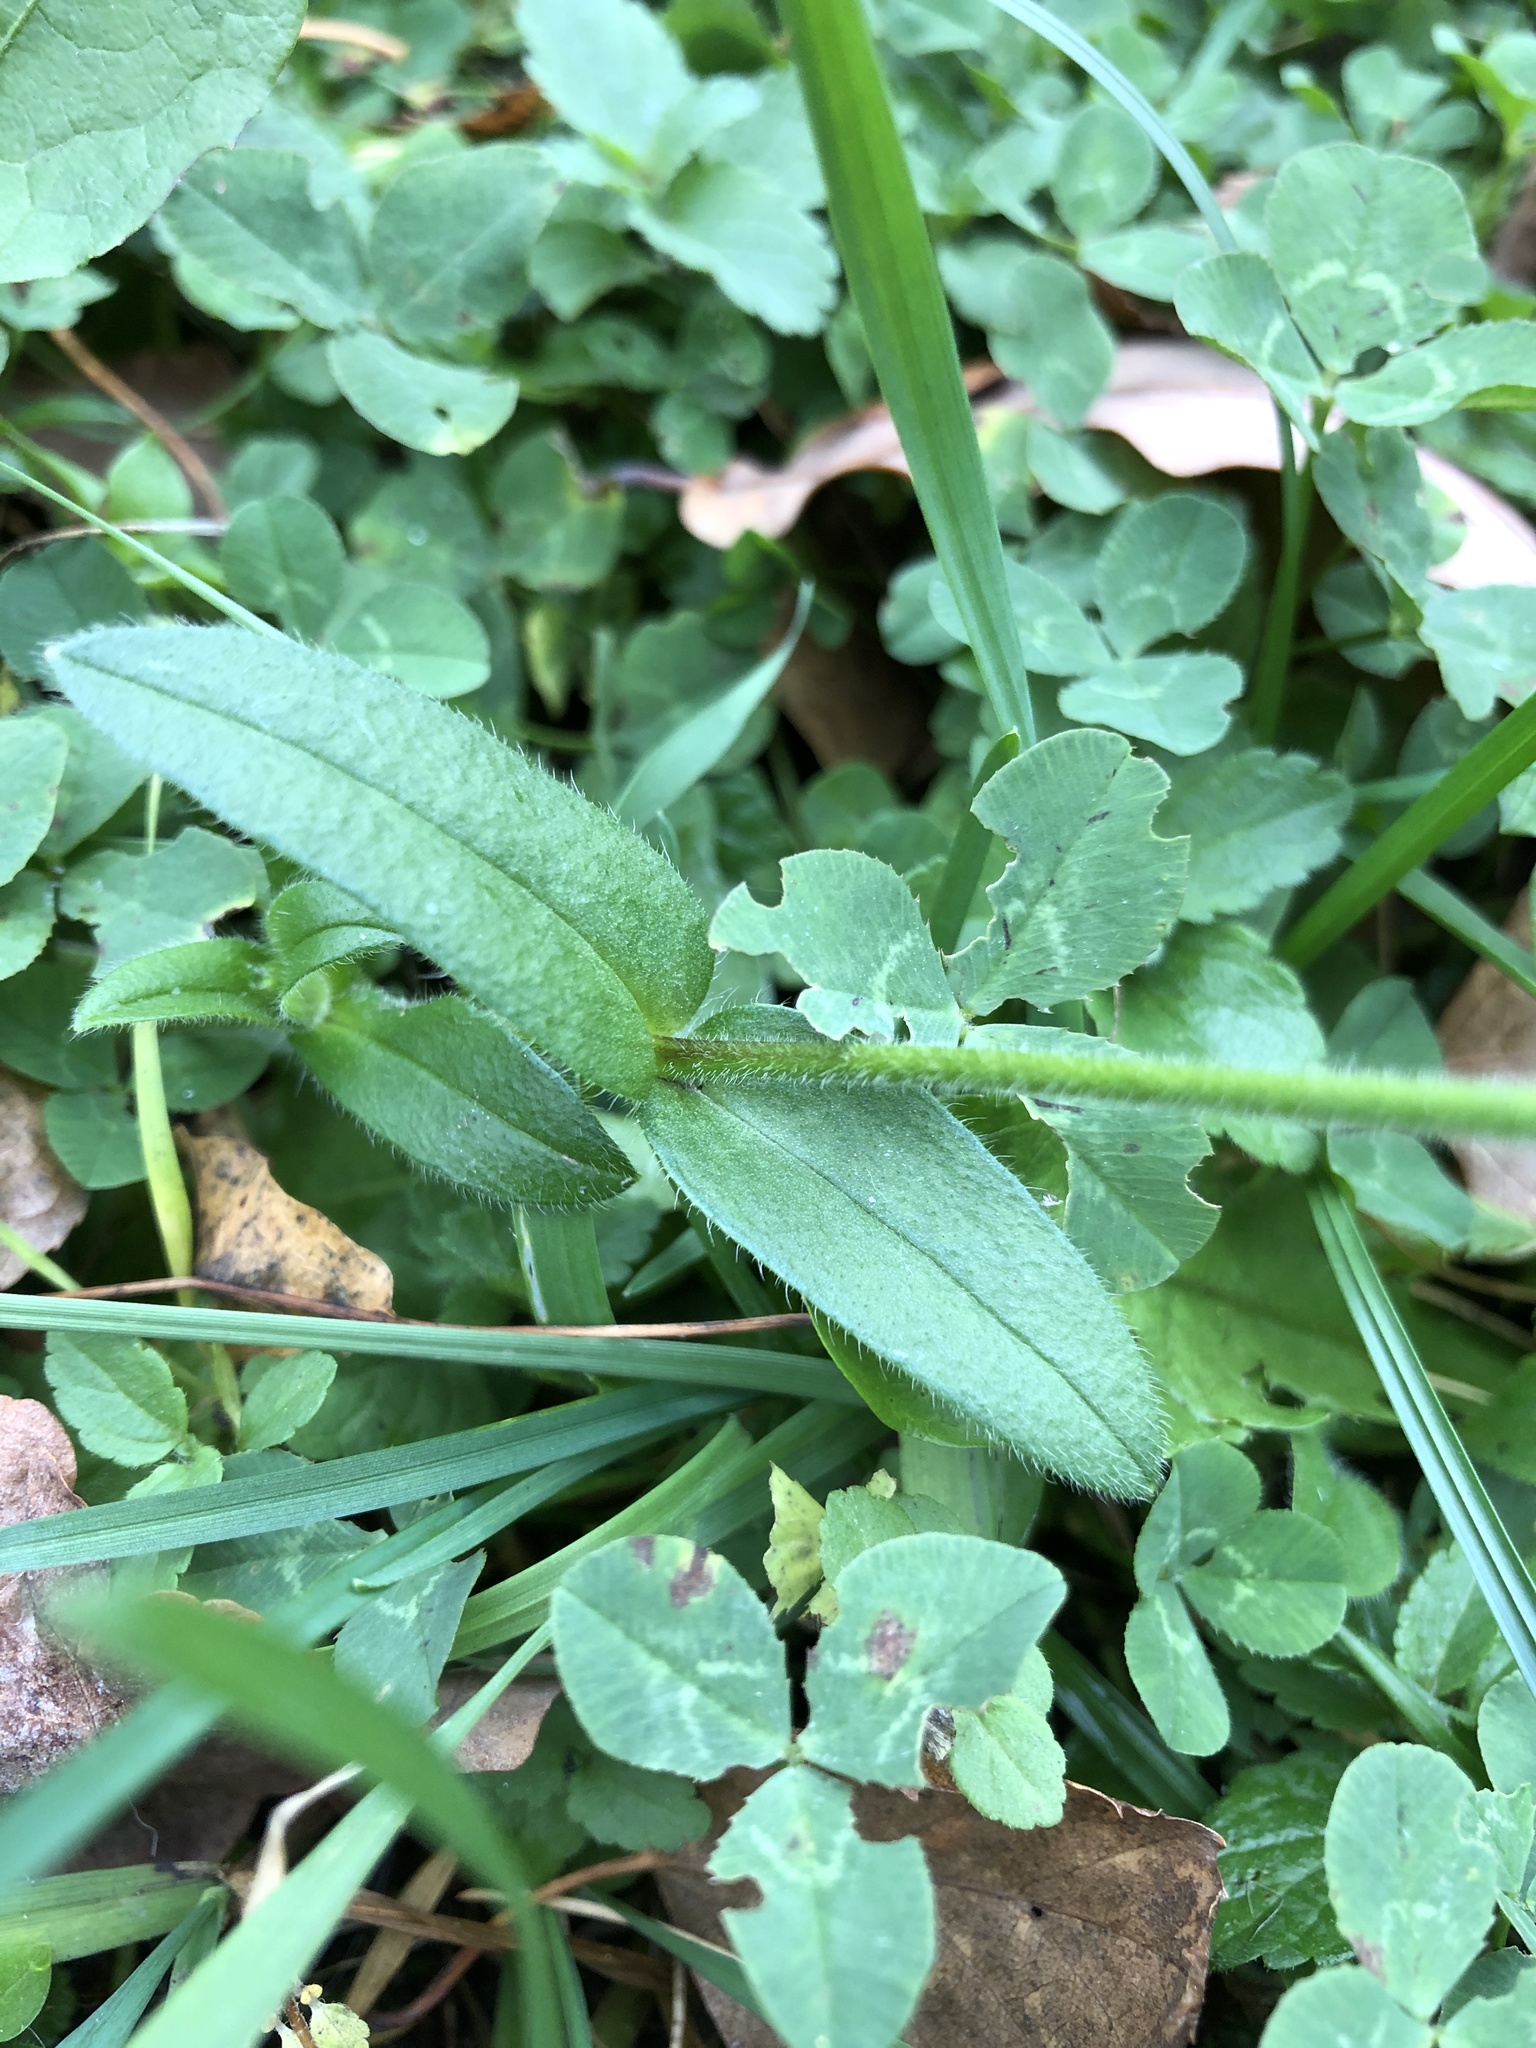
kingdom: Plantae
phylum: Tracheophyta
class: Magnoliopsida
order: Caryophyllales
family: Caryophyllaceae
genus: Cerastium
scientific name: Cerastium holosteoides
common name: Big chickweed
